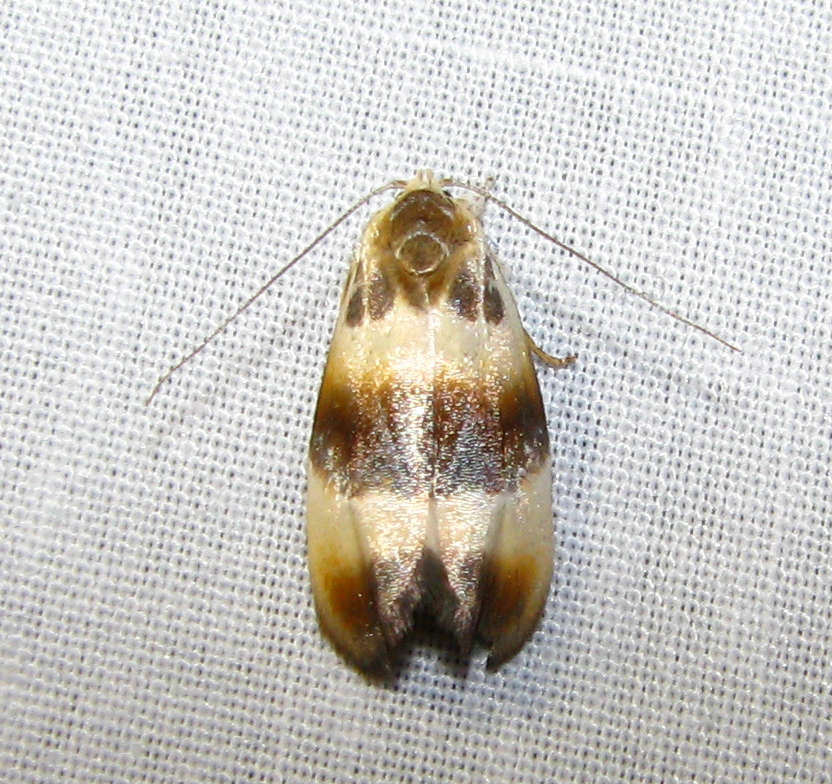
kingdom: Animalia
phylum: Arthropoda
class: Insecta
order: Lepidoptera
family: Oecophoridae
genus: Piloprepes
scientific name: Piloprepes anassa
